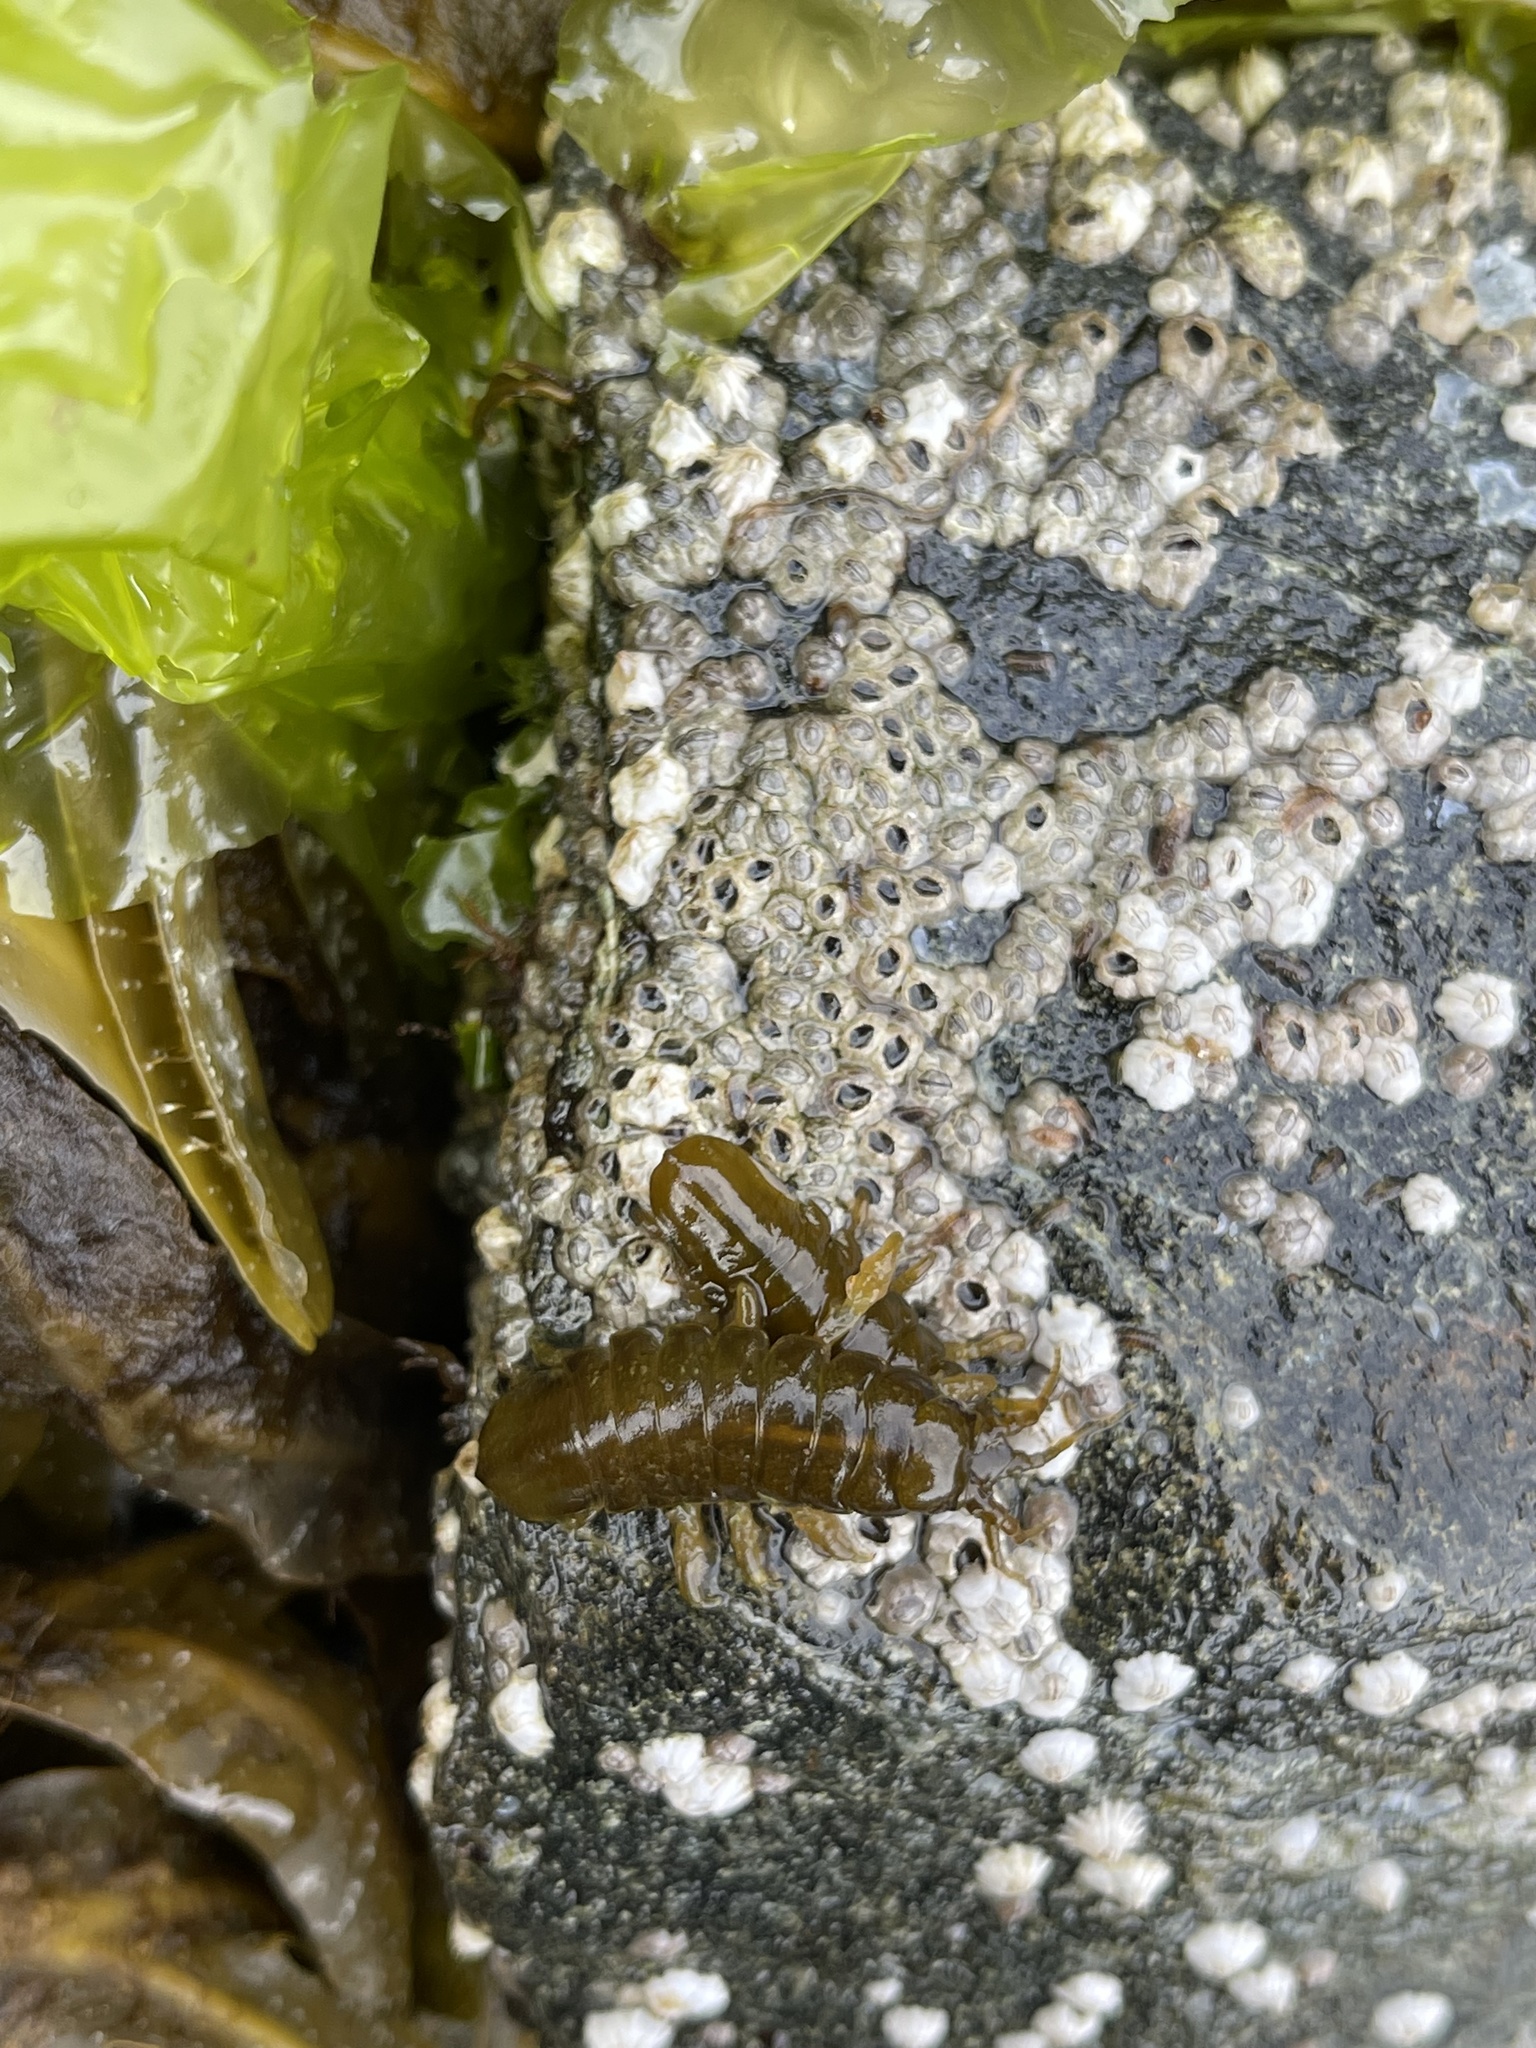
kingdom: Animalia
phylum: Arthropoda
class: Malacostraca
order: Isopoda
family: Idoteidae
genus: Pentidotea
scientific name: Pentidotea wosnesenskii
